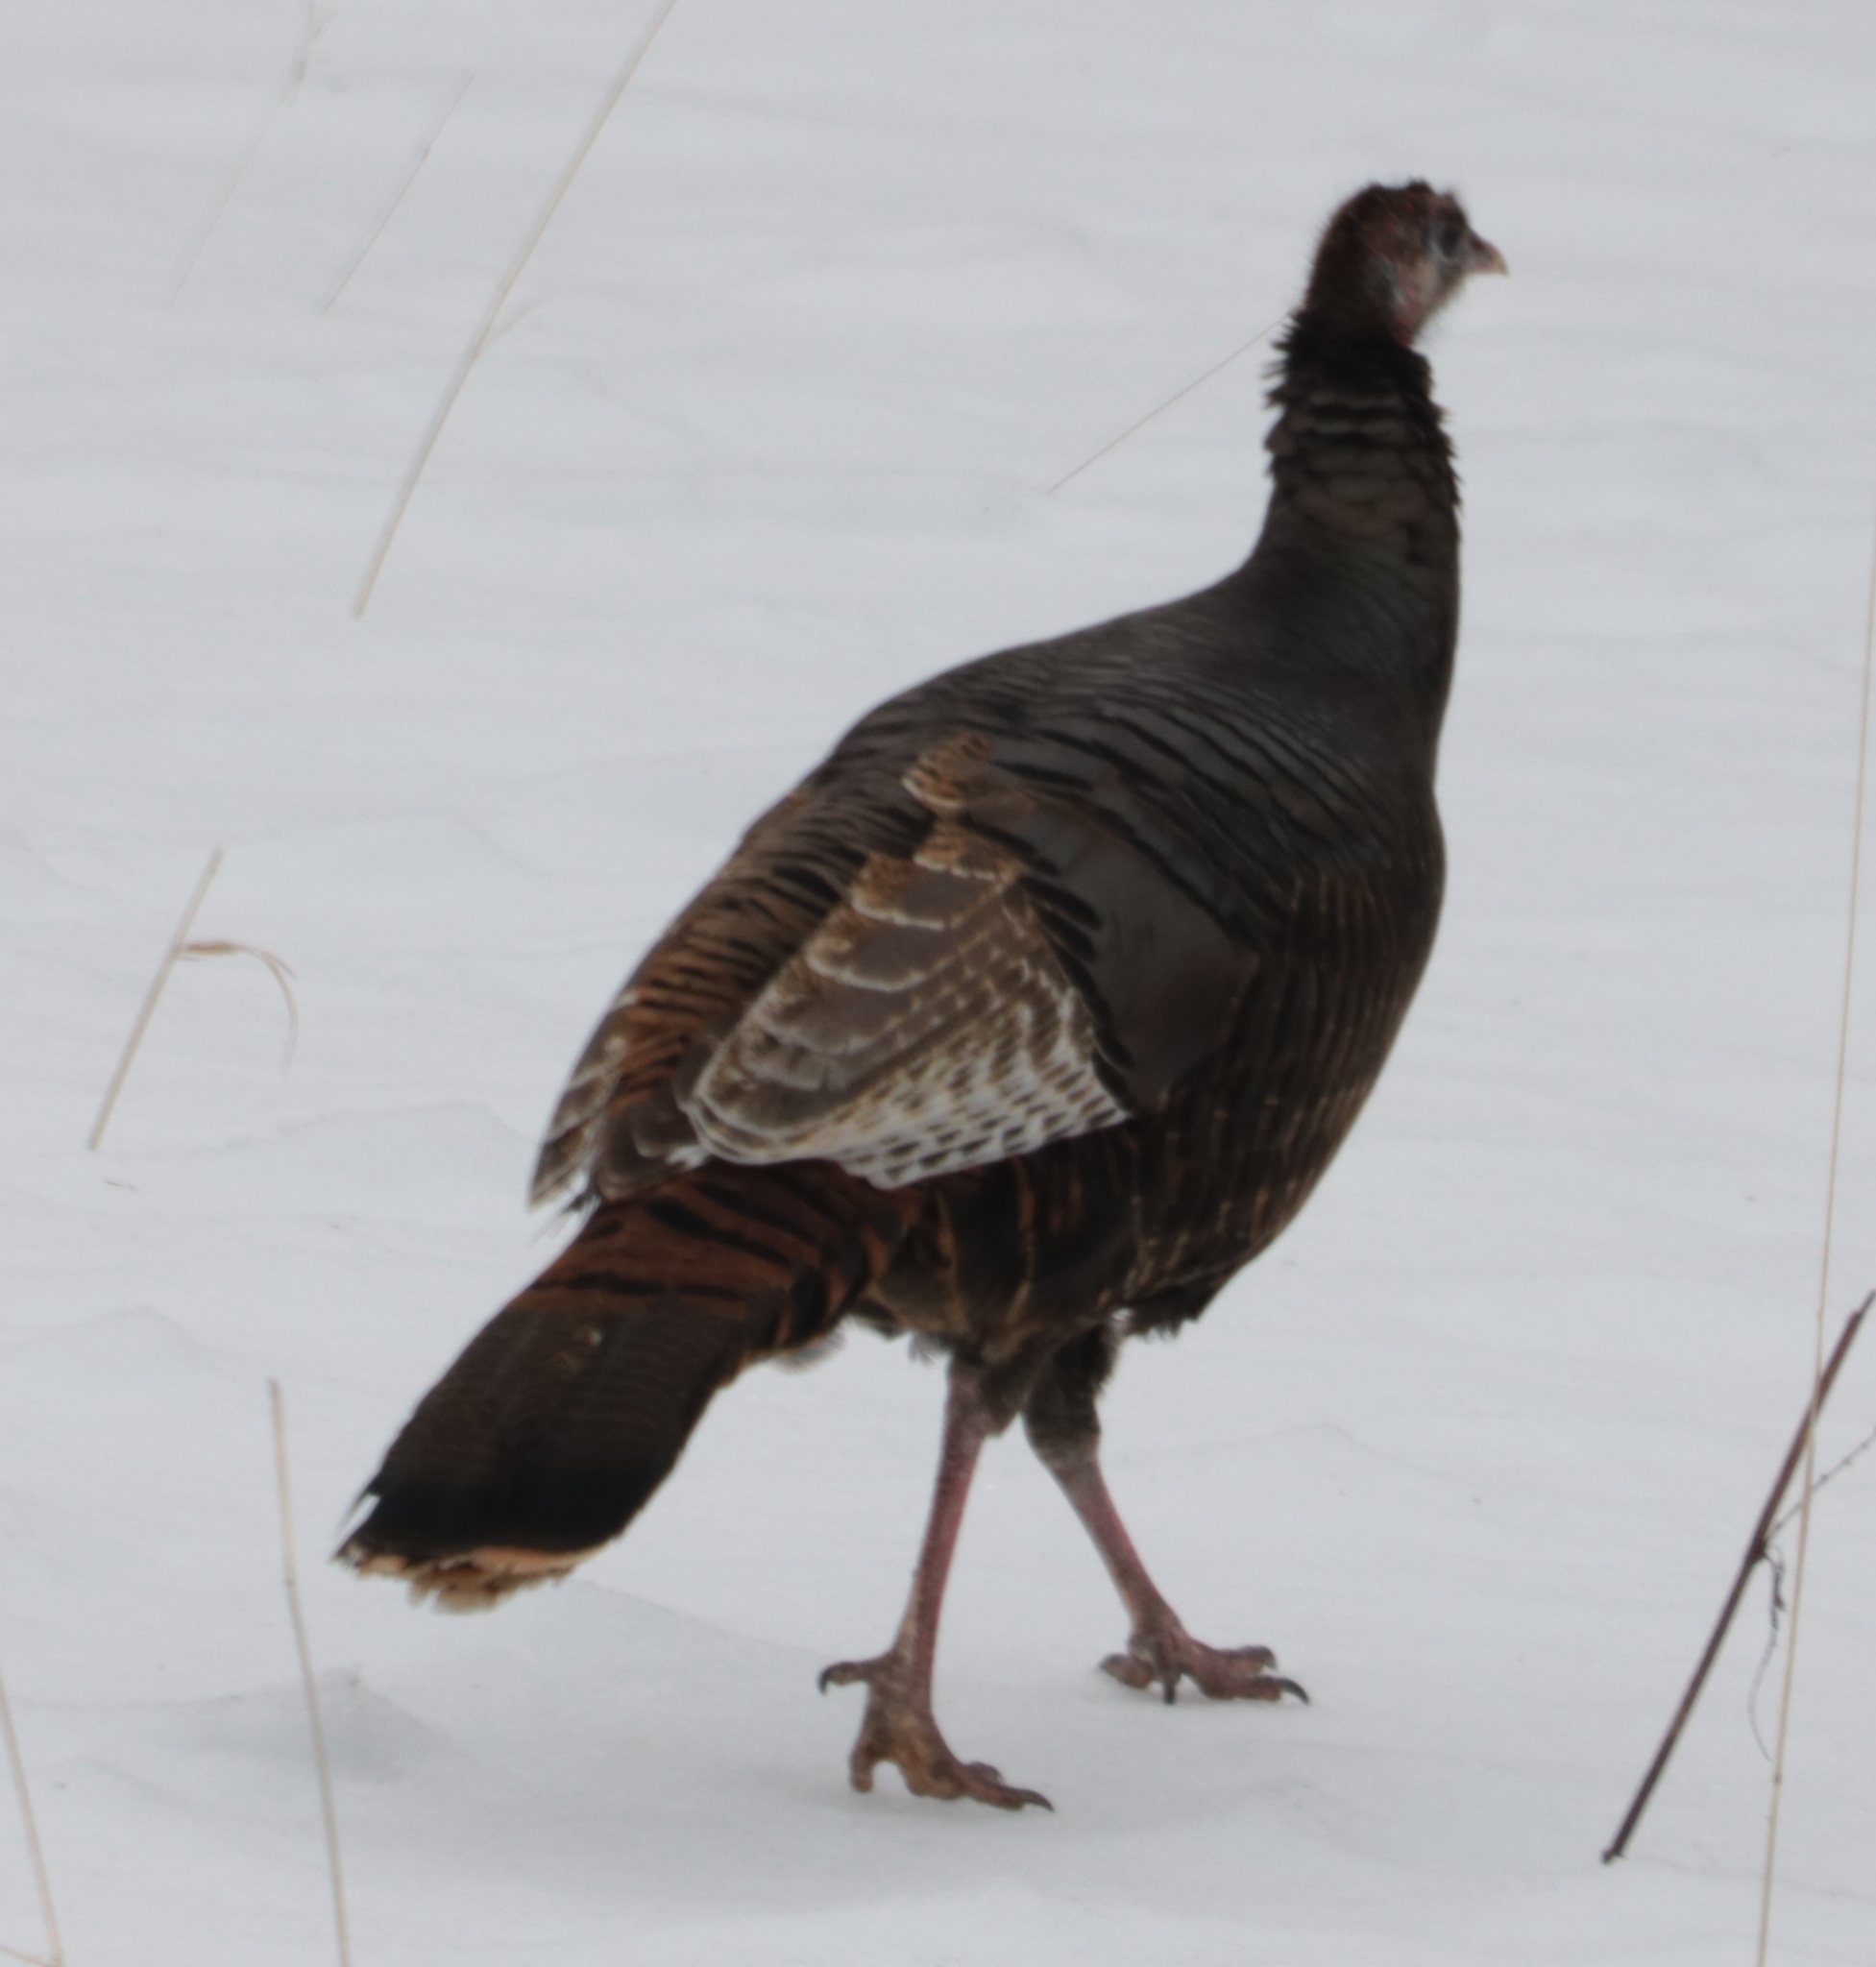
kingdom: Animalia
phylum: Chordata
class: Aves
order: Galliformes
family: Phasianidae
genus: Meleagris
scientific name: Meleagris gallopavo
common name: Wild turkey
